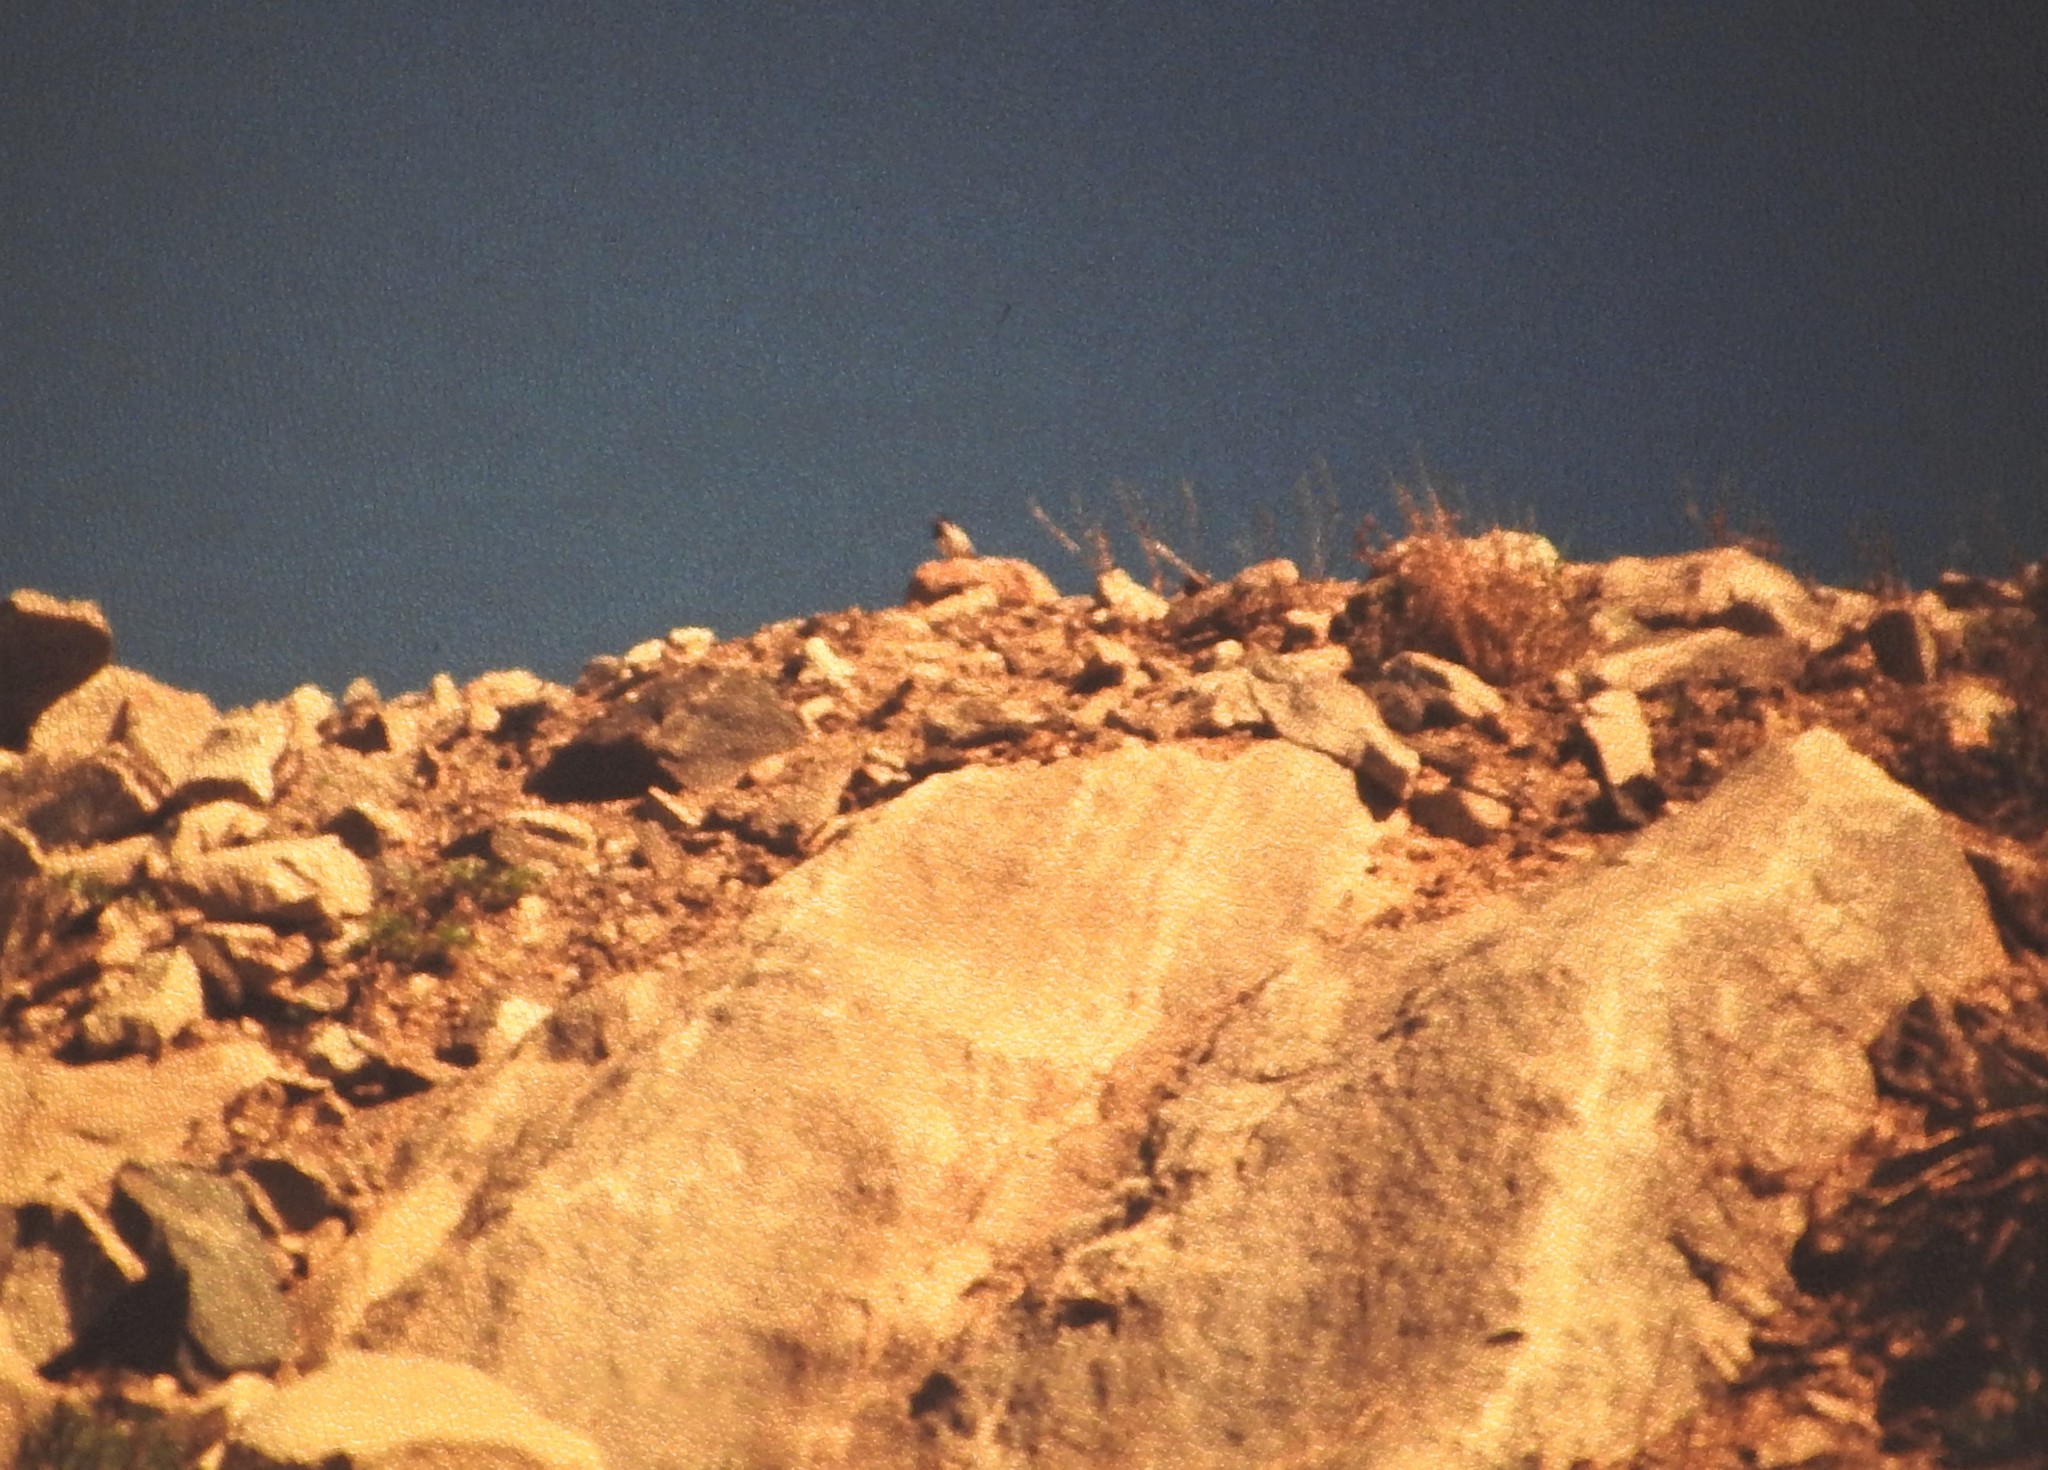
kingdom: Animalia
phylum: Chordata
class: Aves
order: Passeriformes
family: Motacillidae
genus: Motacilla
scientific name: Motacilla alba
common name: White wagtail
